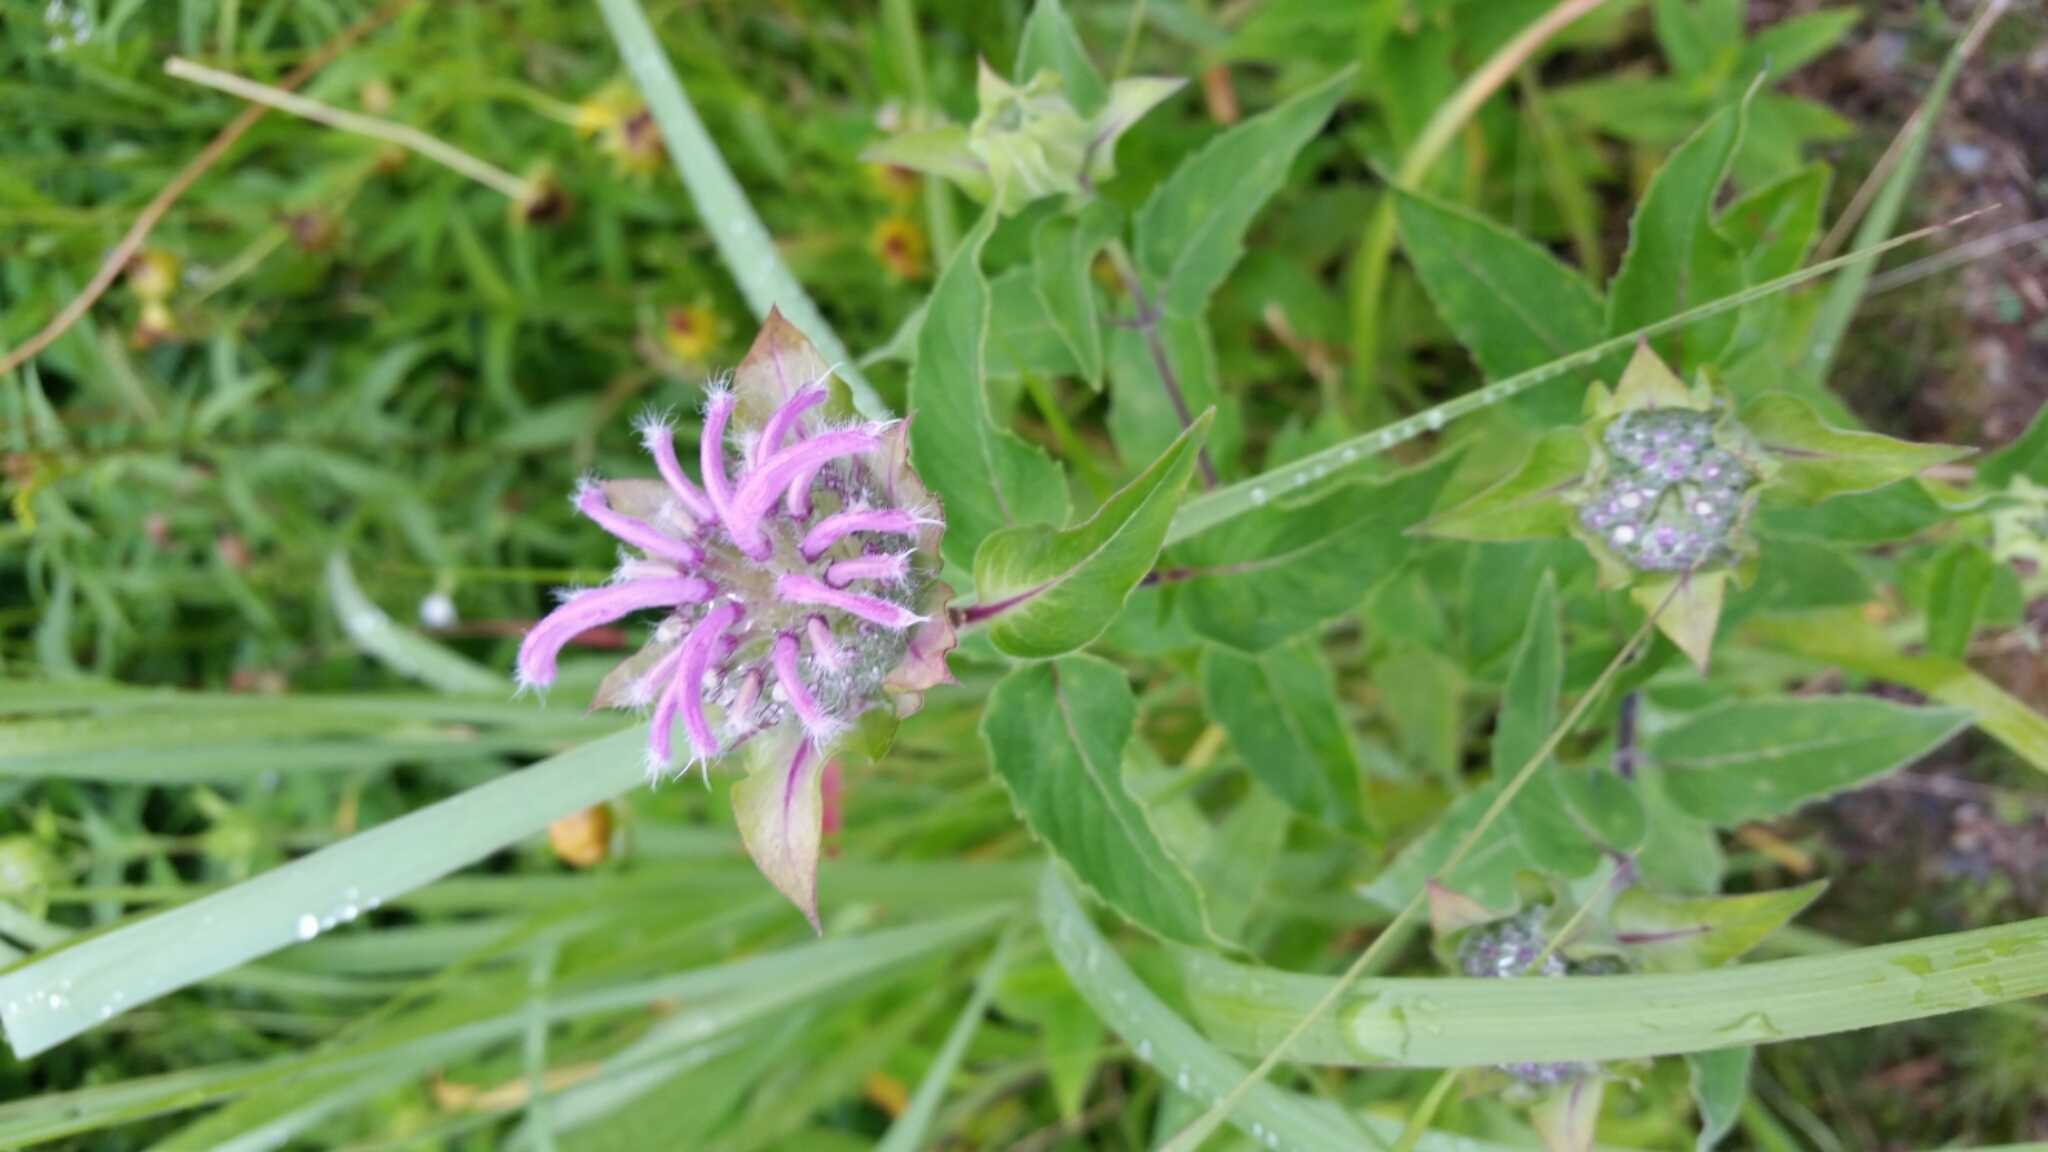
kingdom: Plantae
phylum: Tracheophyta
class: Magnoliopsida
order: Lamiales
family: Lamiaceae
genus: Monarda
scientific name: Monarda fistulosa
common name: Purple beebalm
